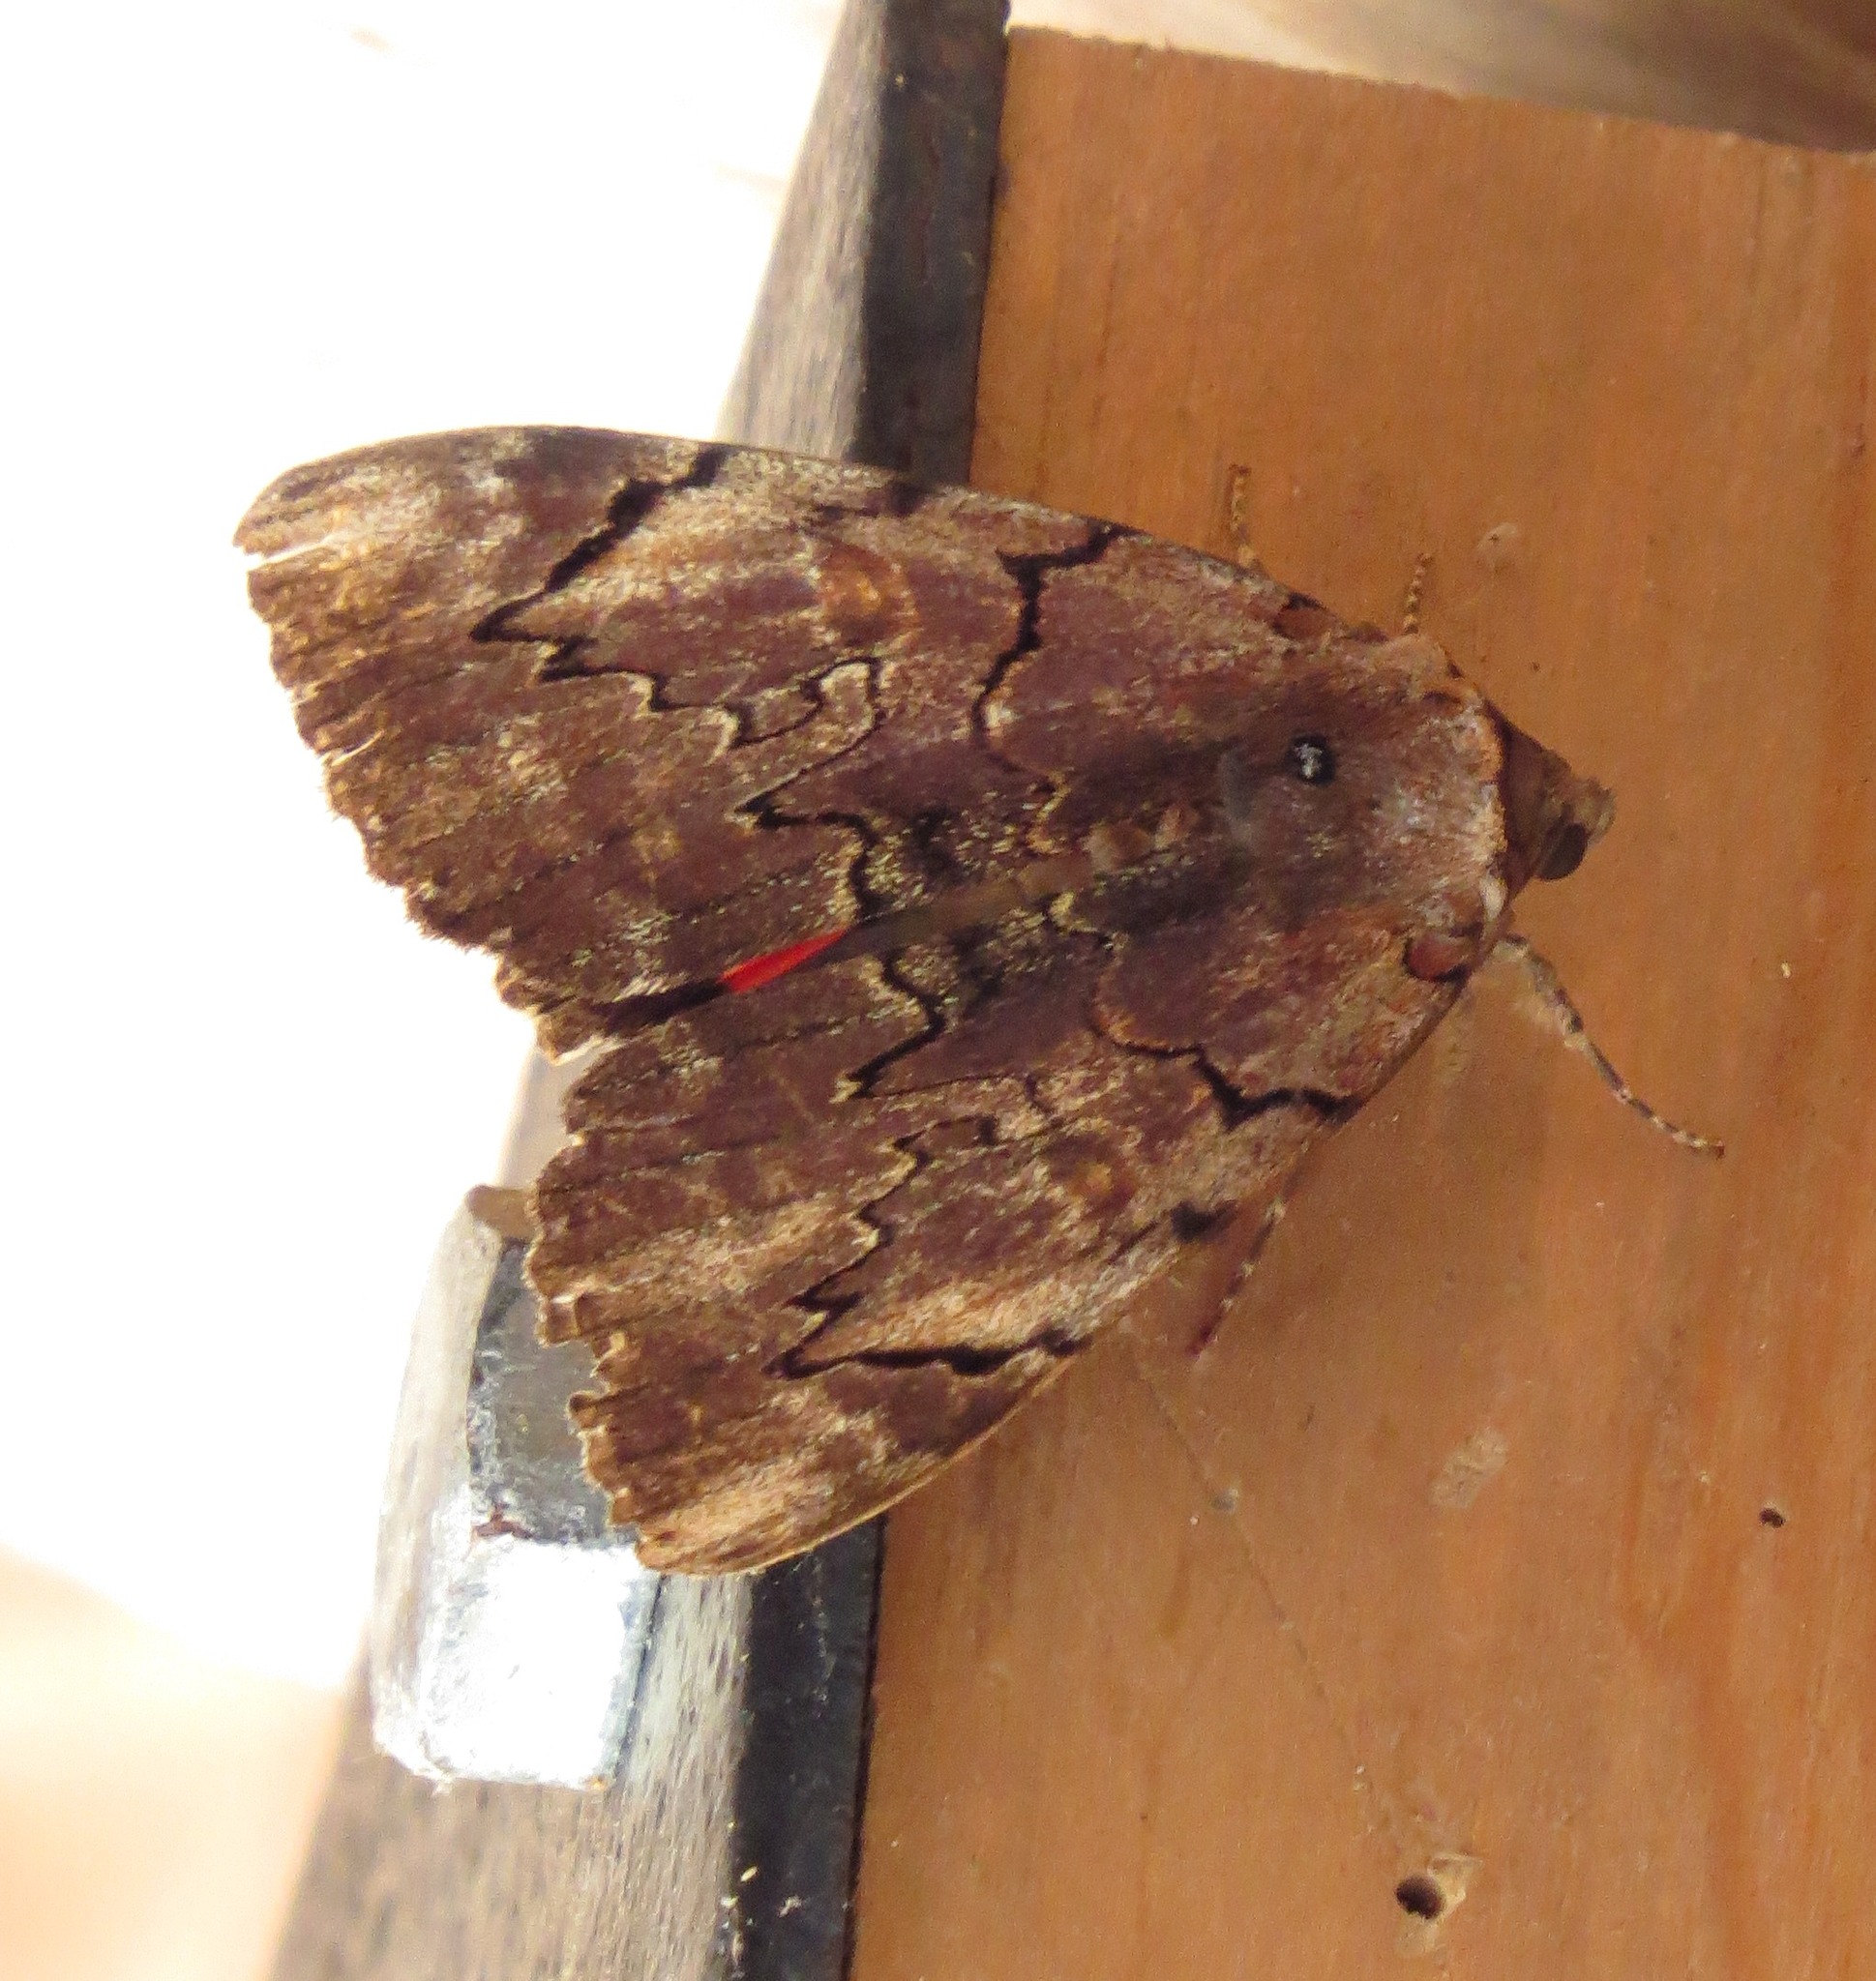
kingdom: Animalia
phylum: Arthropoda
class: Insecta
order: Lepidoptera
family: Erebidae
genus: Catocala
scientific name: Catocala carissima
